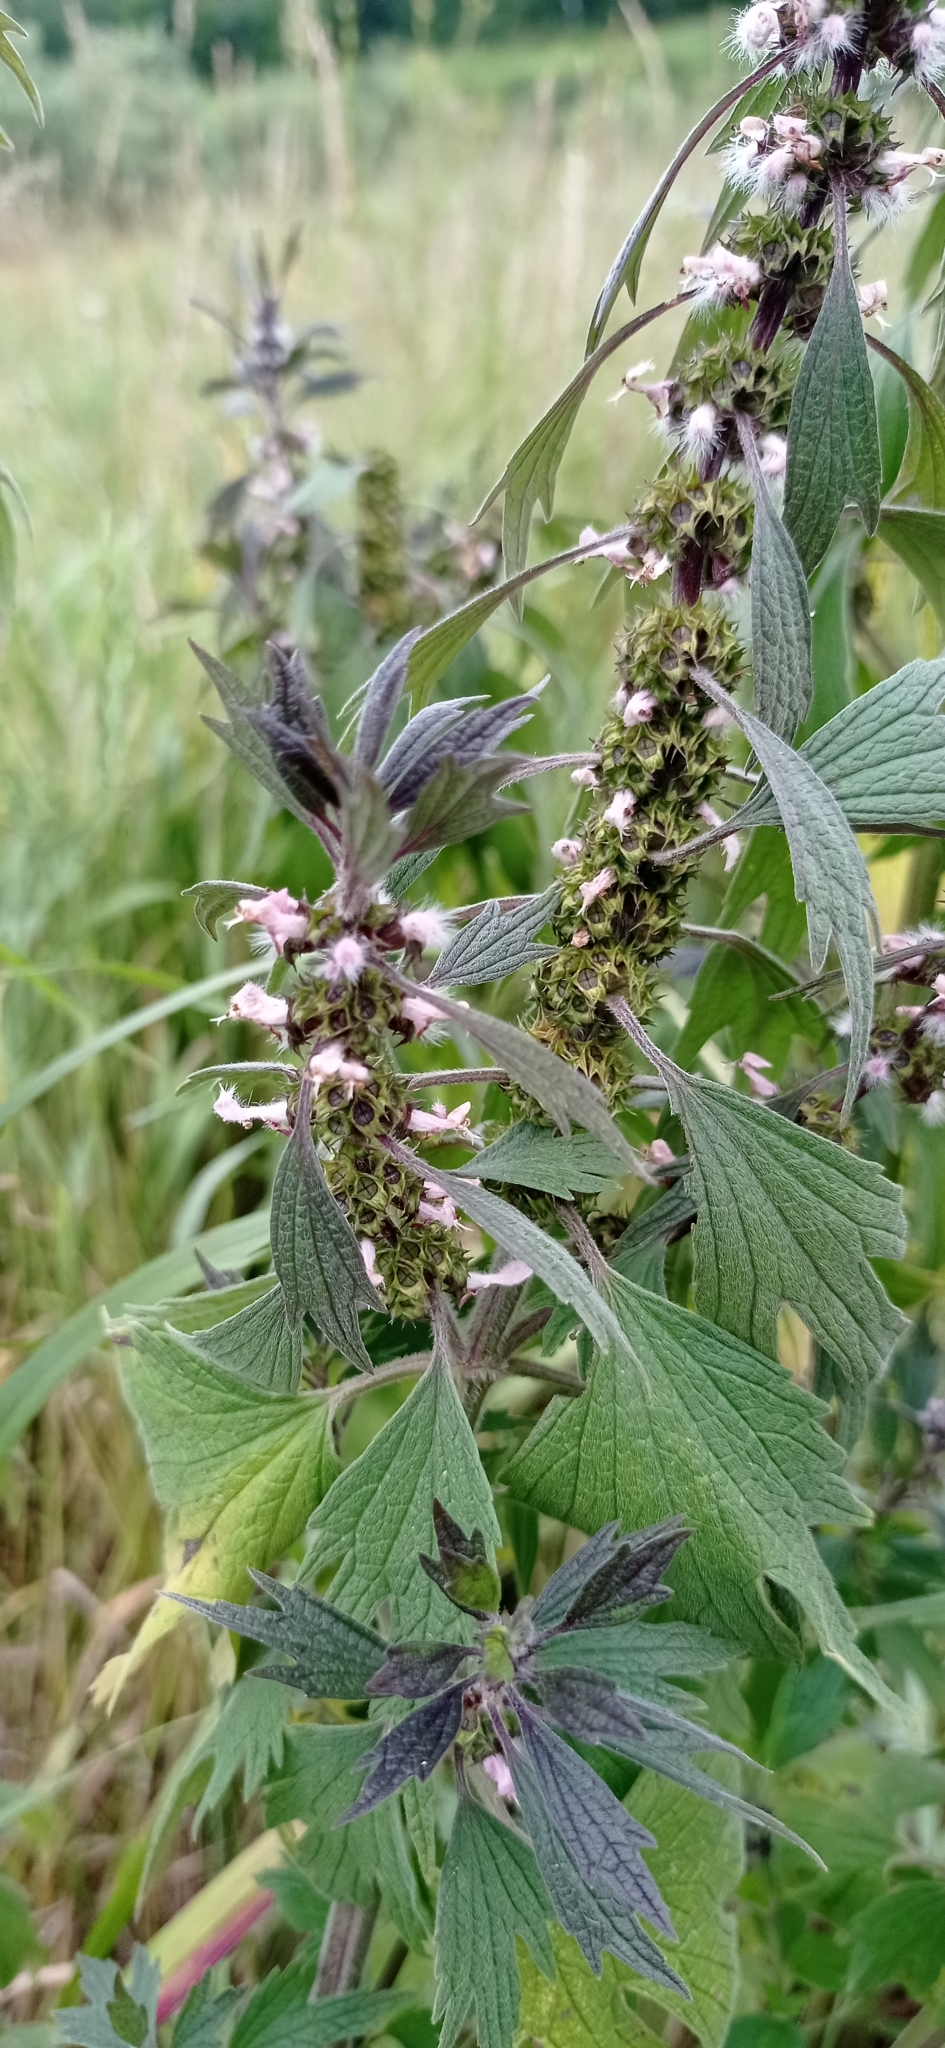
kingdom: Plantae
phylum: Tracheophyta
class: Magnoliopsida
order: Lamiales
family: Lamiaceae
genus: Leonurus
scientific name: Leonurus quinquelobatus
